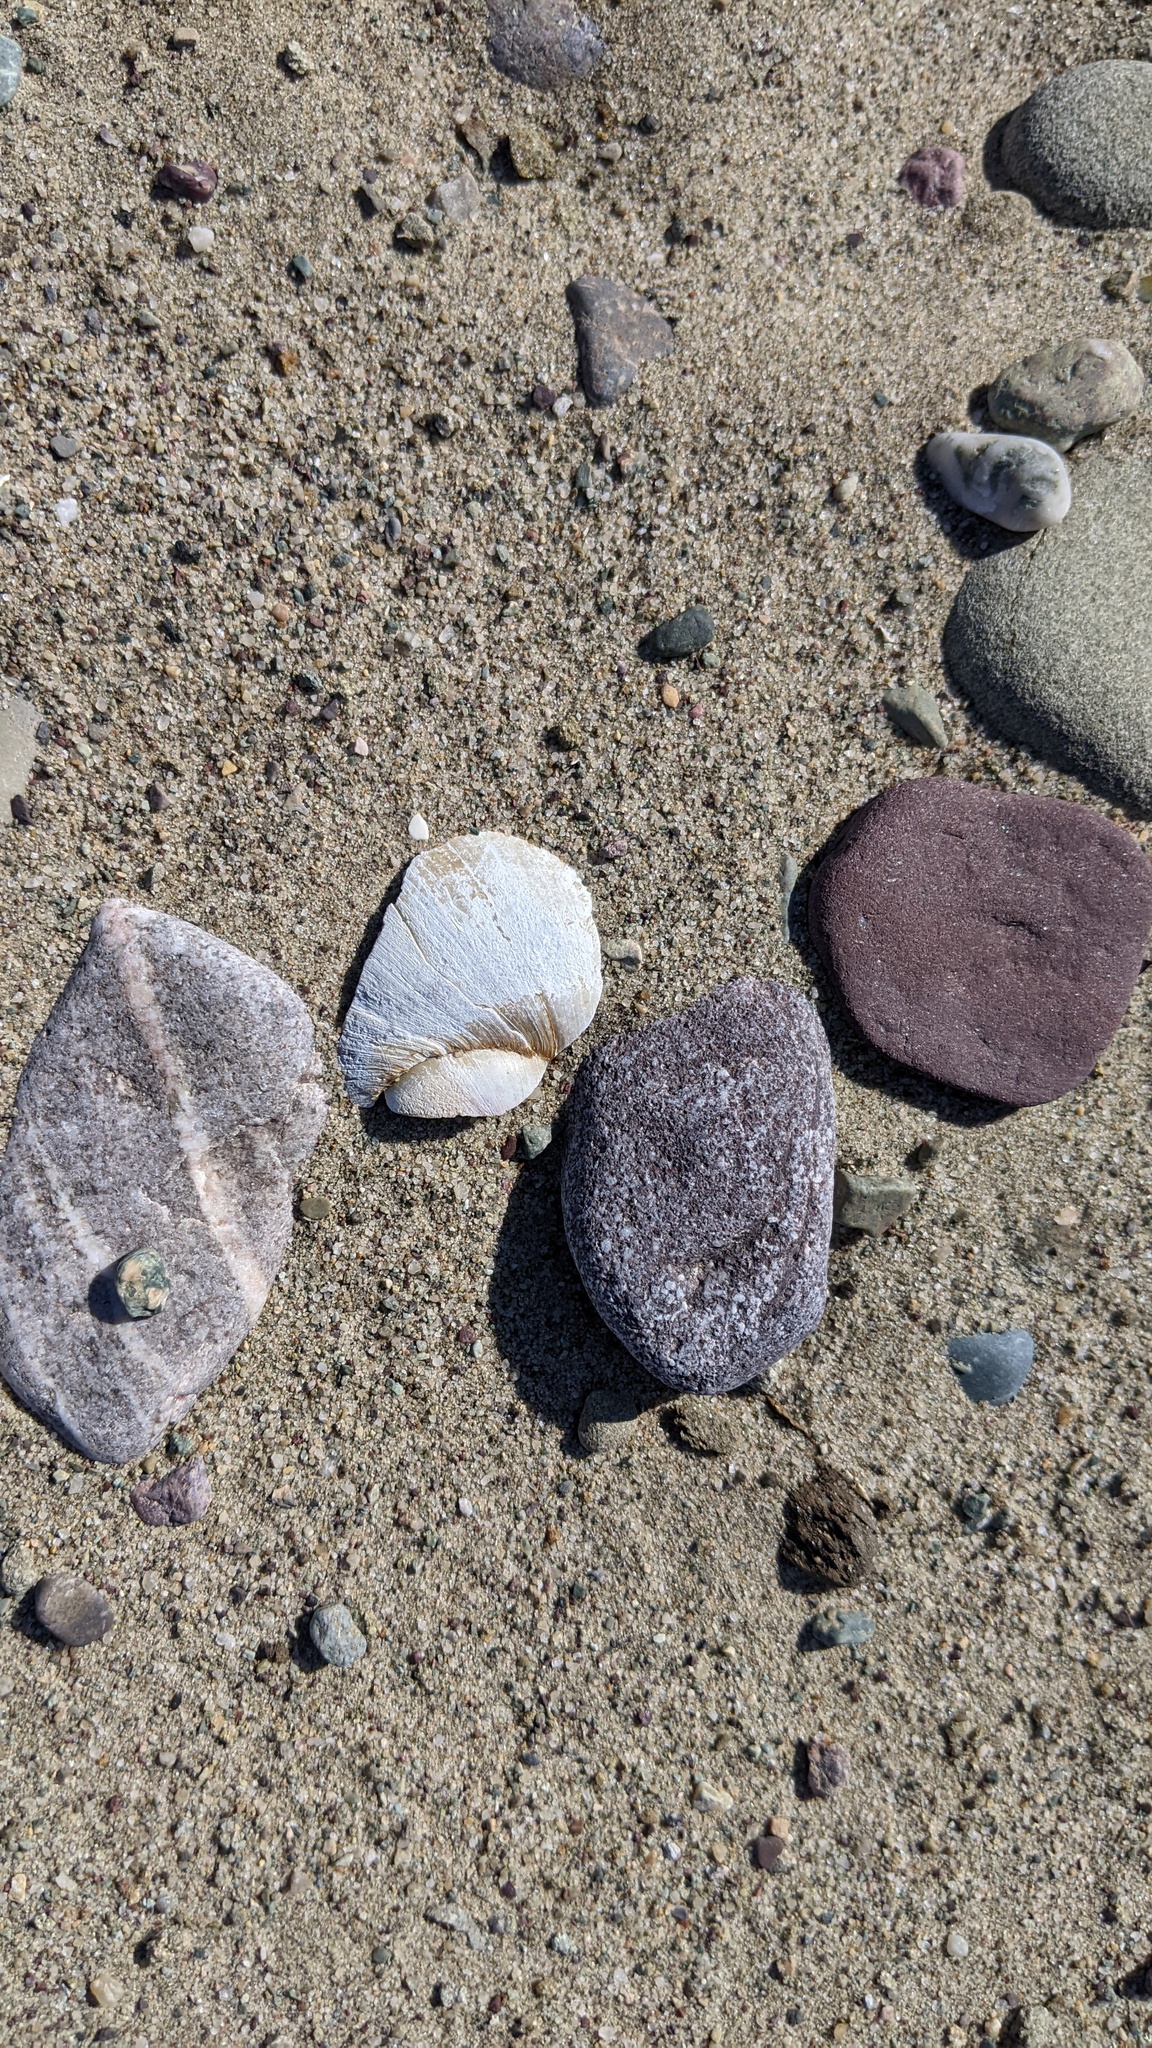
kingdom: Animalia
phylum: Mollusca
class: Gastropoda
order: Littorinimorpha
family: Naticidae
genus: Euspira
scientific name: Euspira heros
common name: Common northern moonsnail
